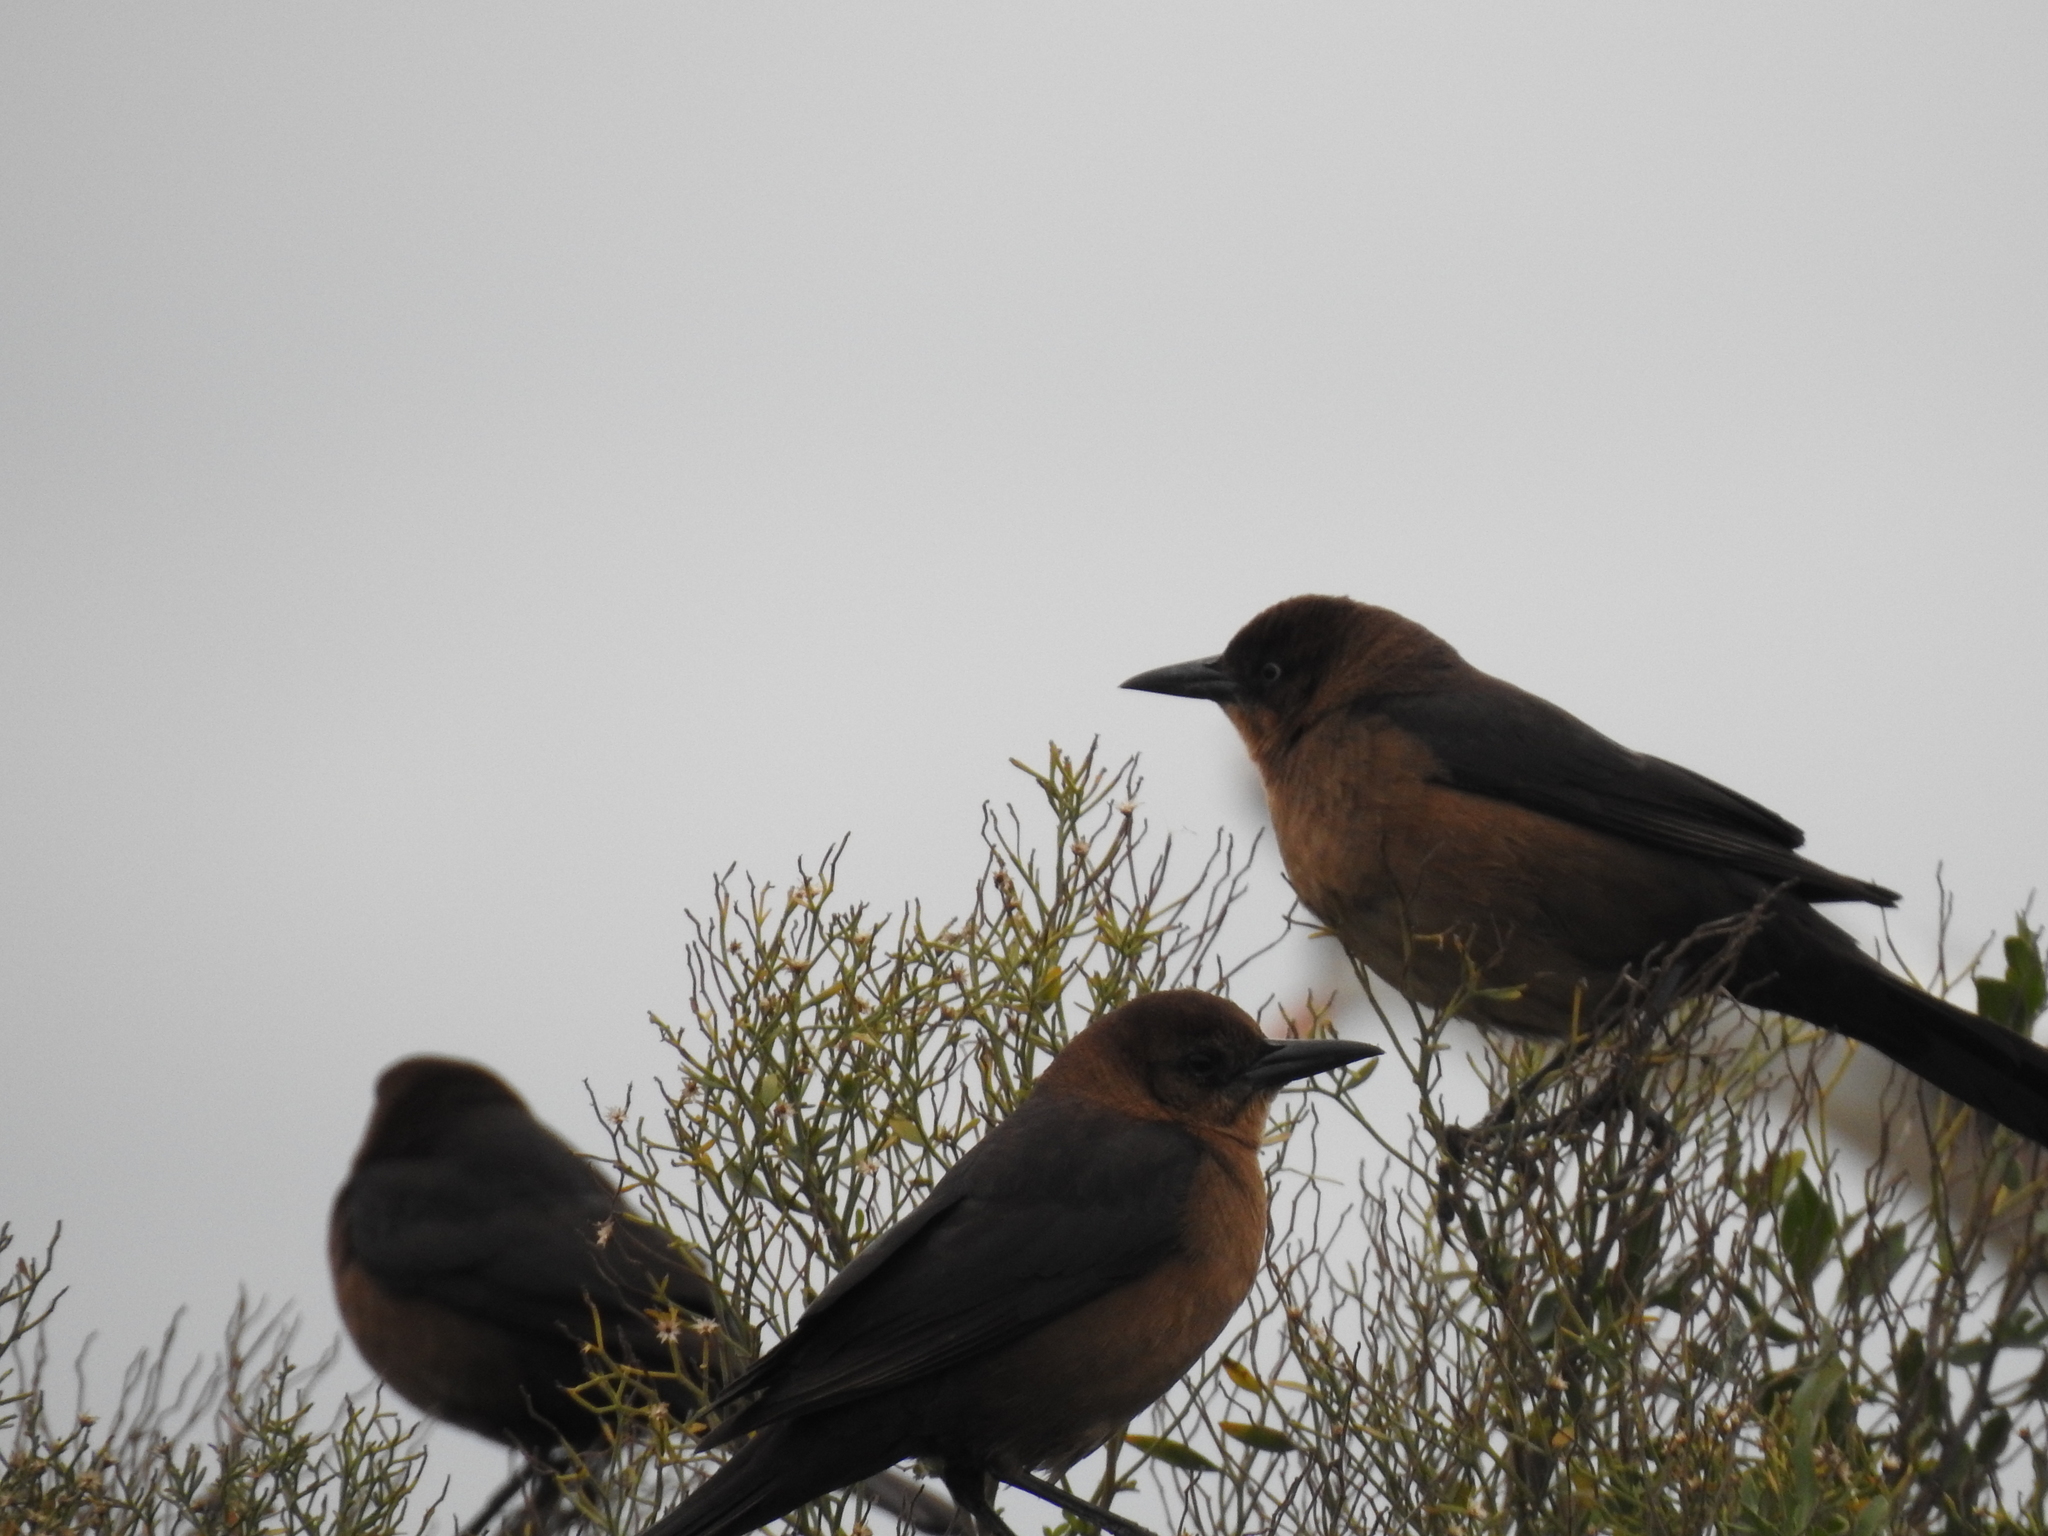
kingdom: Animalia
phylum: Chordata
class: Aves
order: Passeriformes
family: Icteridae
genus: Quiscalus
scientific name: Quiscalus major
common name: Boat-tailed grackle
